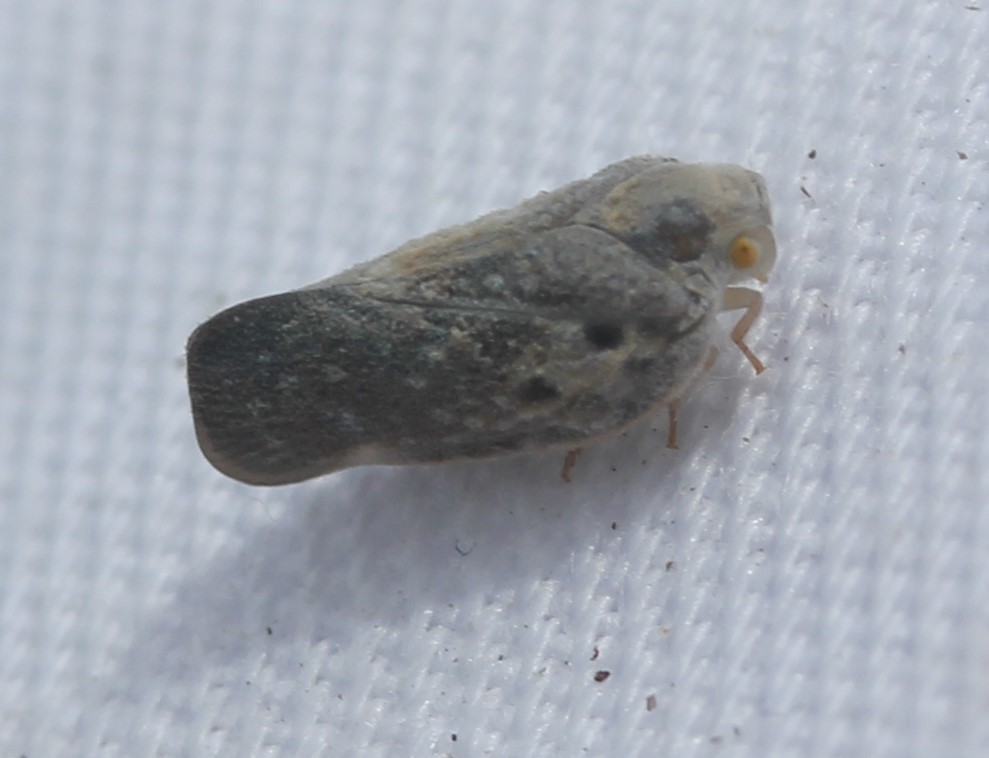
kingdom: Animalia
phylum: Arthropoda
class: Insecta
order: Hemiptera
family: Flatidae
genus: Metcalfa
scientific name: Metcalfa pruinosa
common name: Citrus flatid planthopper
